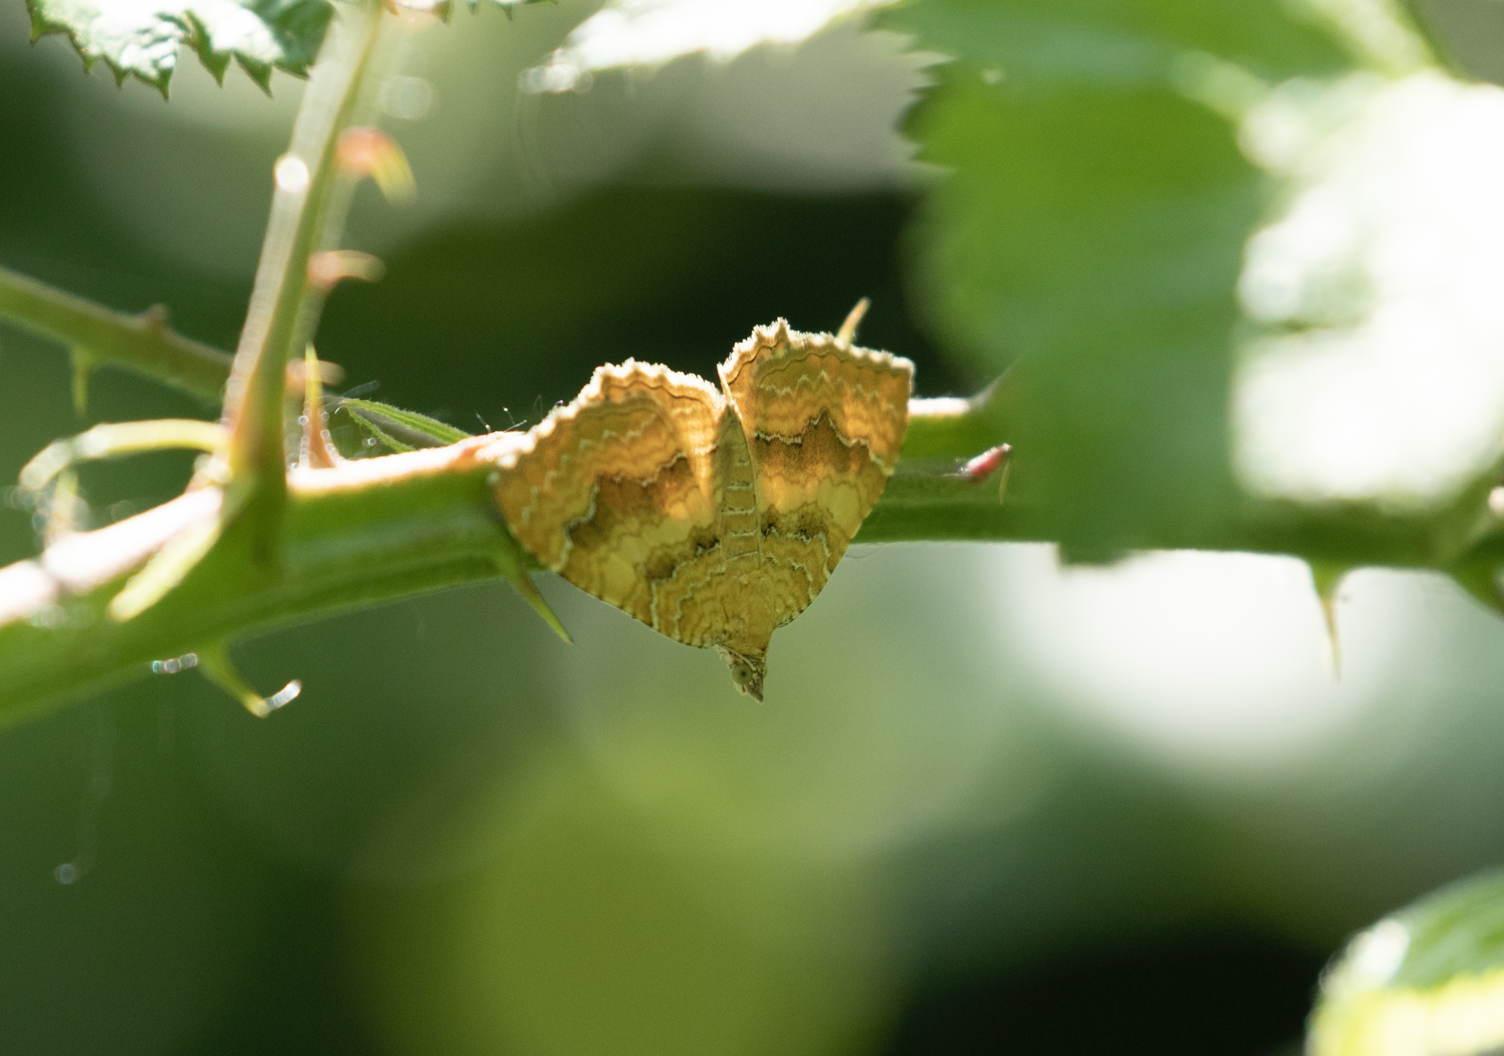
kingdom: Animalia
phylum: Arthropoda
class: Insecta
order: Lepidoptera
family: Geometridae
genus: Camptogramma
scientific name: Camptogramma bilineata
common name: Yellow shell
